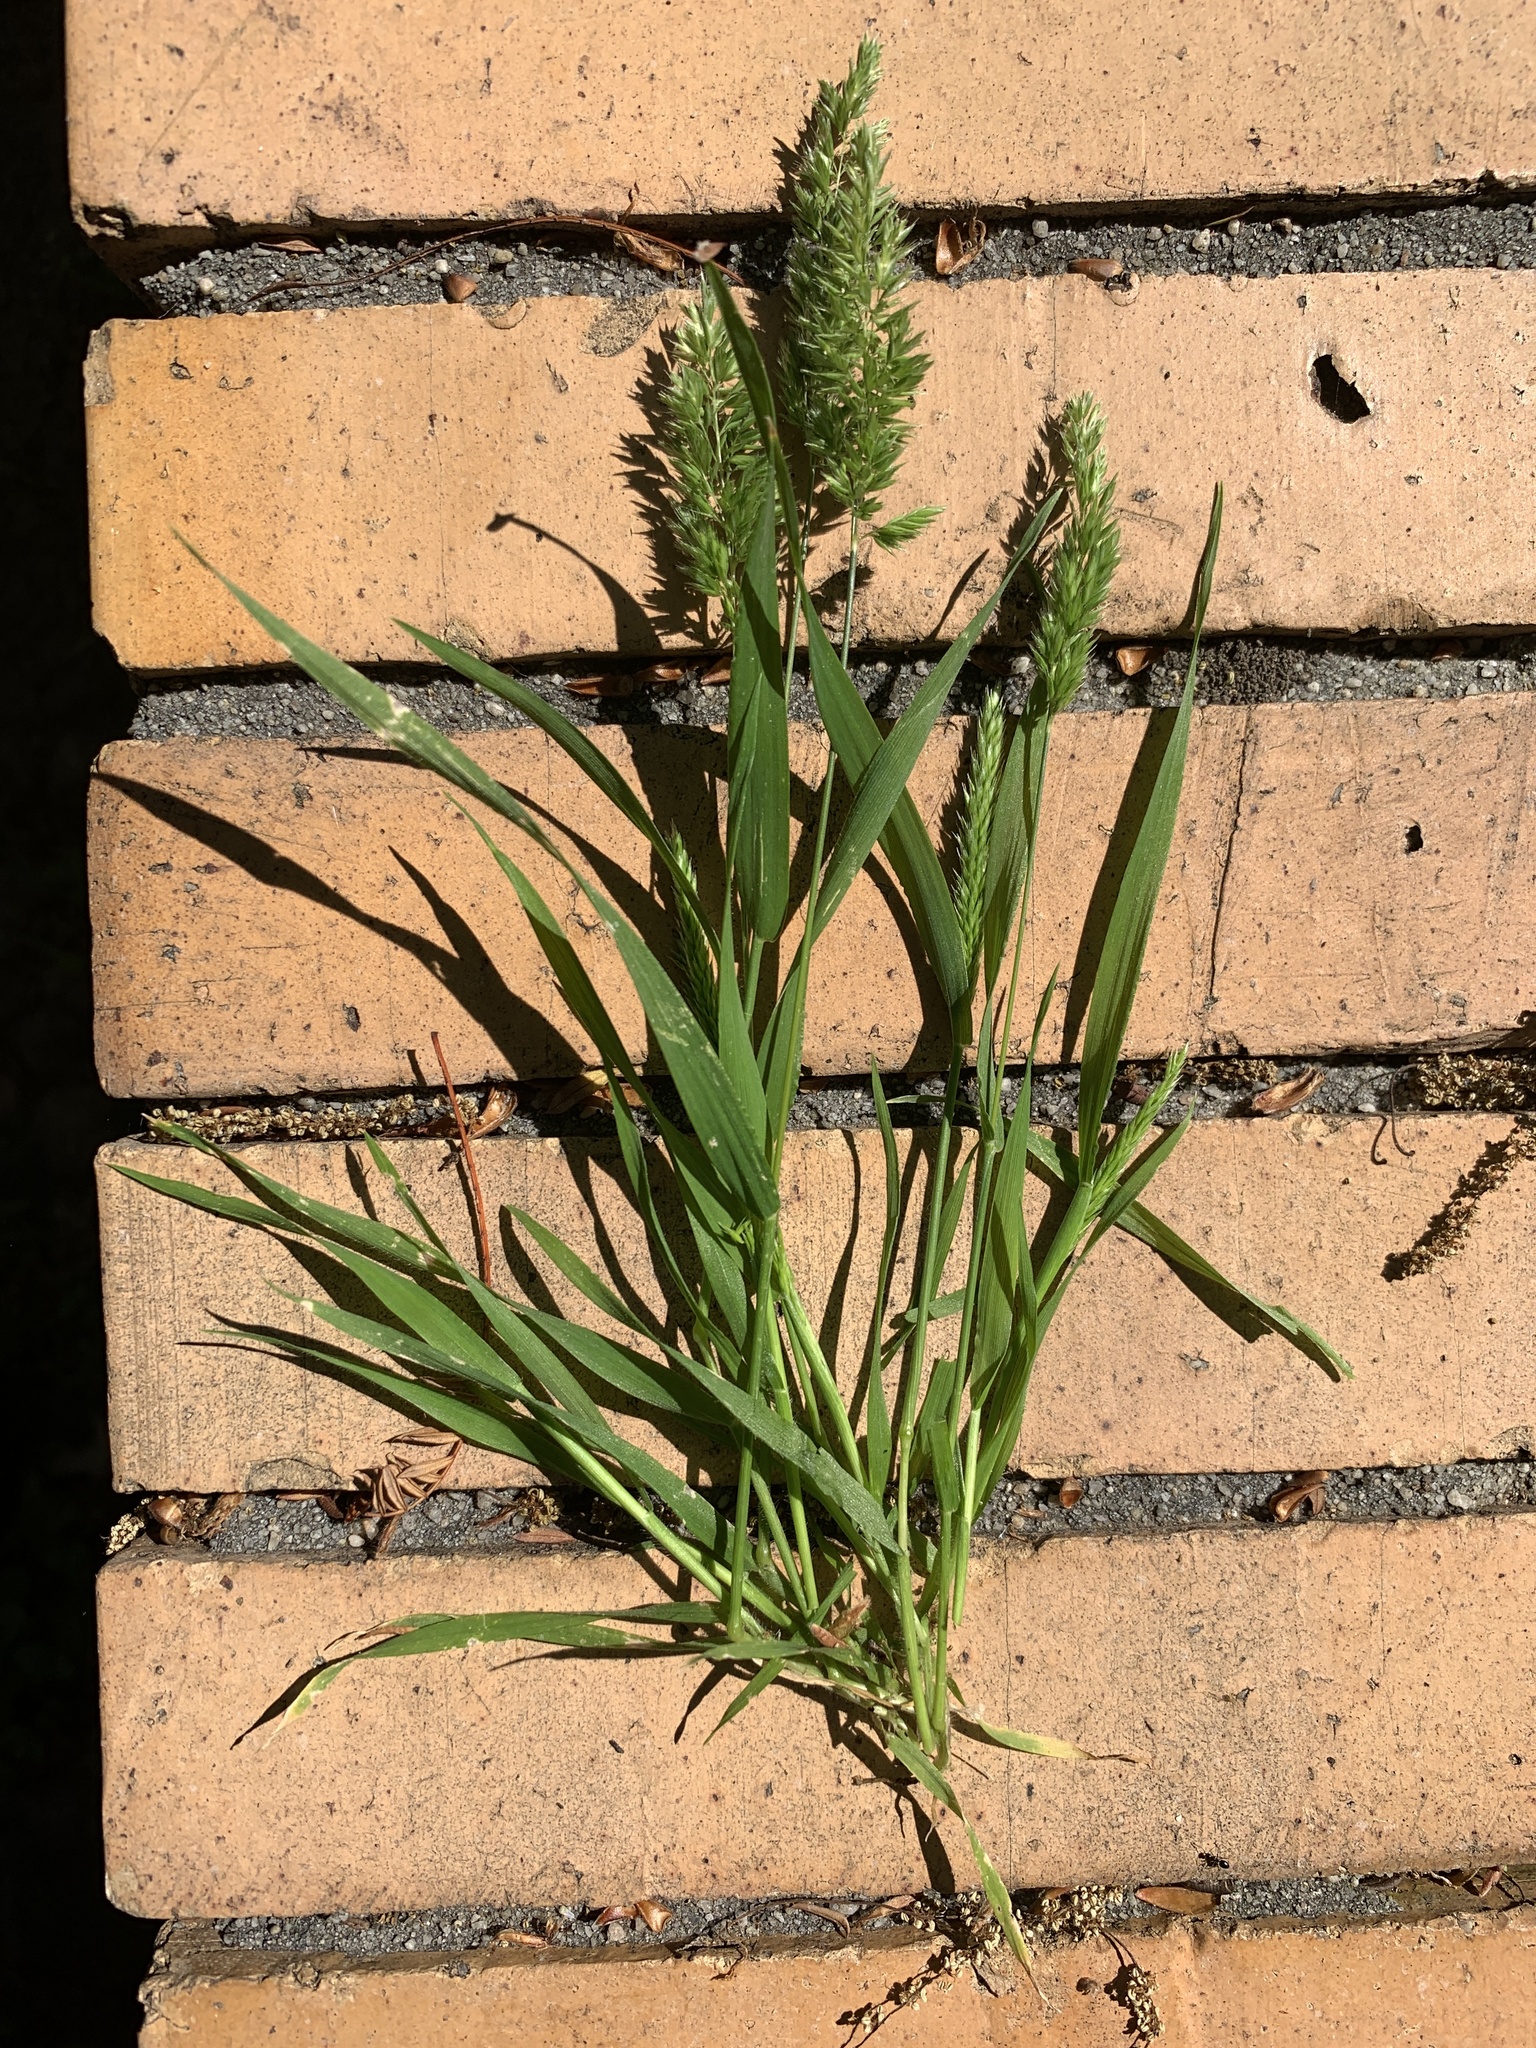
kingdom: Plantae
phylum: Tracheophyta
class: Liliopsida
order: Poales
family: Poaceae
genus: Rostraria
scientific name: Rostraria cristata
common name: Mediterranean hair-grass
